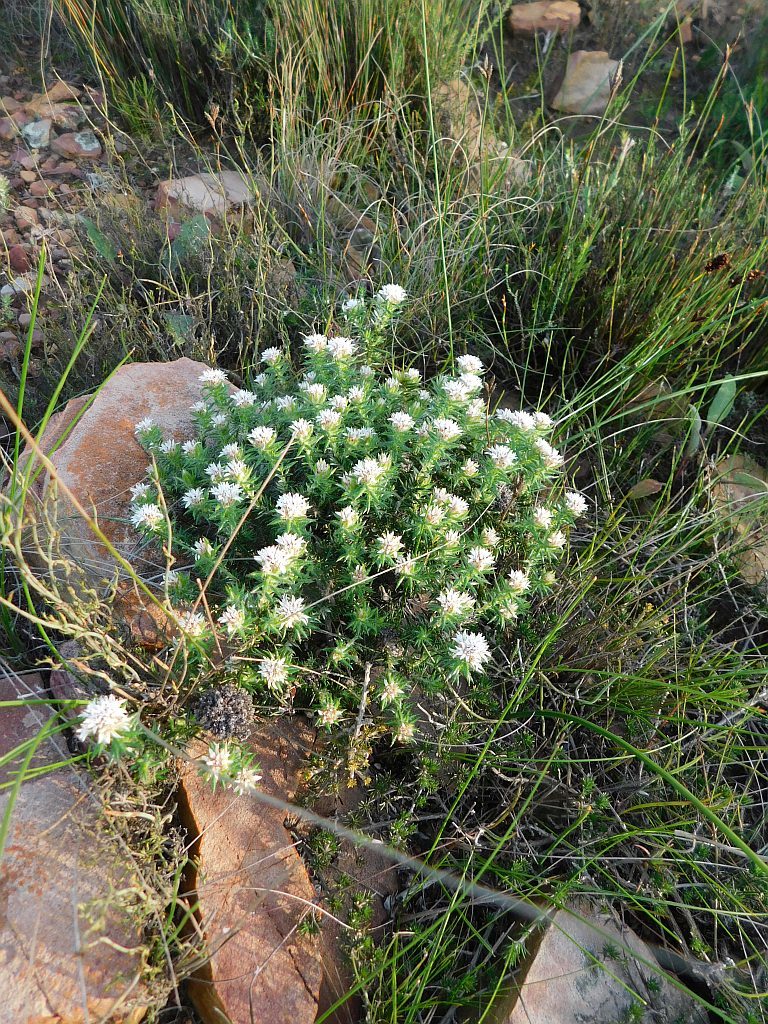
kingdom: Plantae
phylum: Tracheophyta
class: Magnoliopsida
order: Asterales
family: Asteraceae
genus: Metalasia
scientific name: Metalasia inversa
